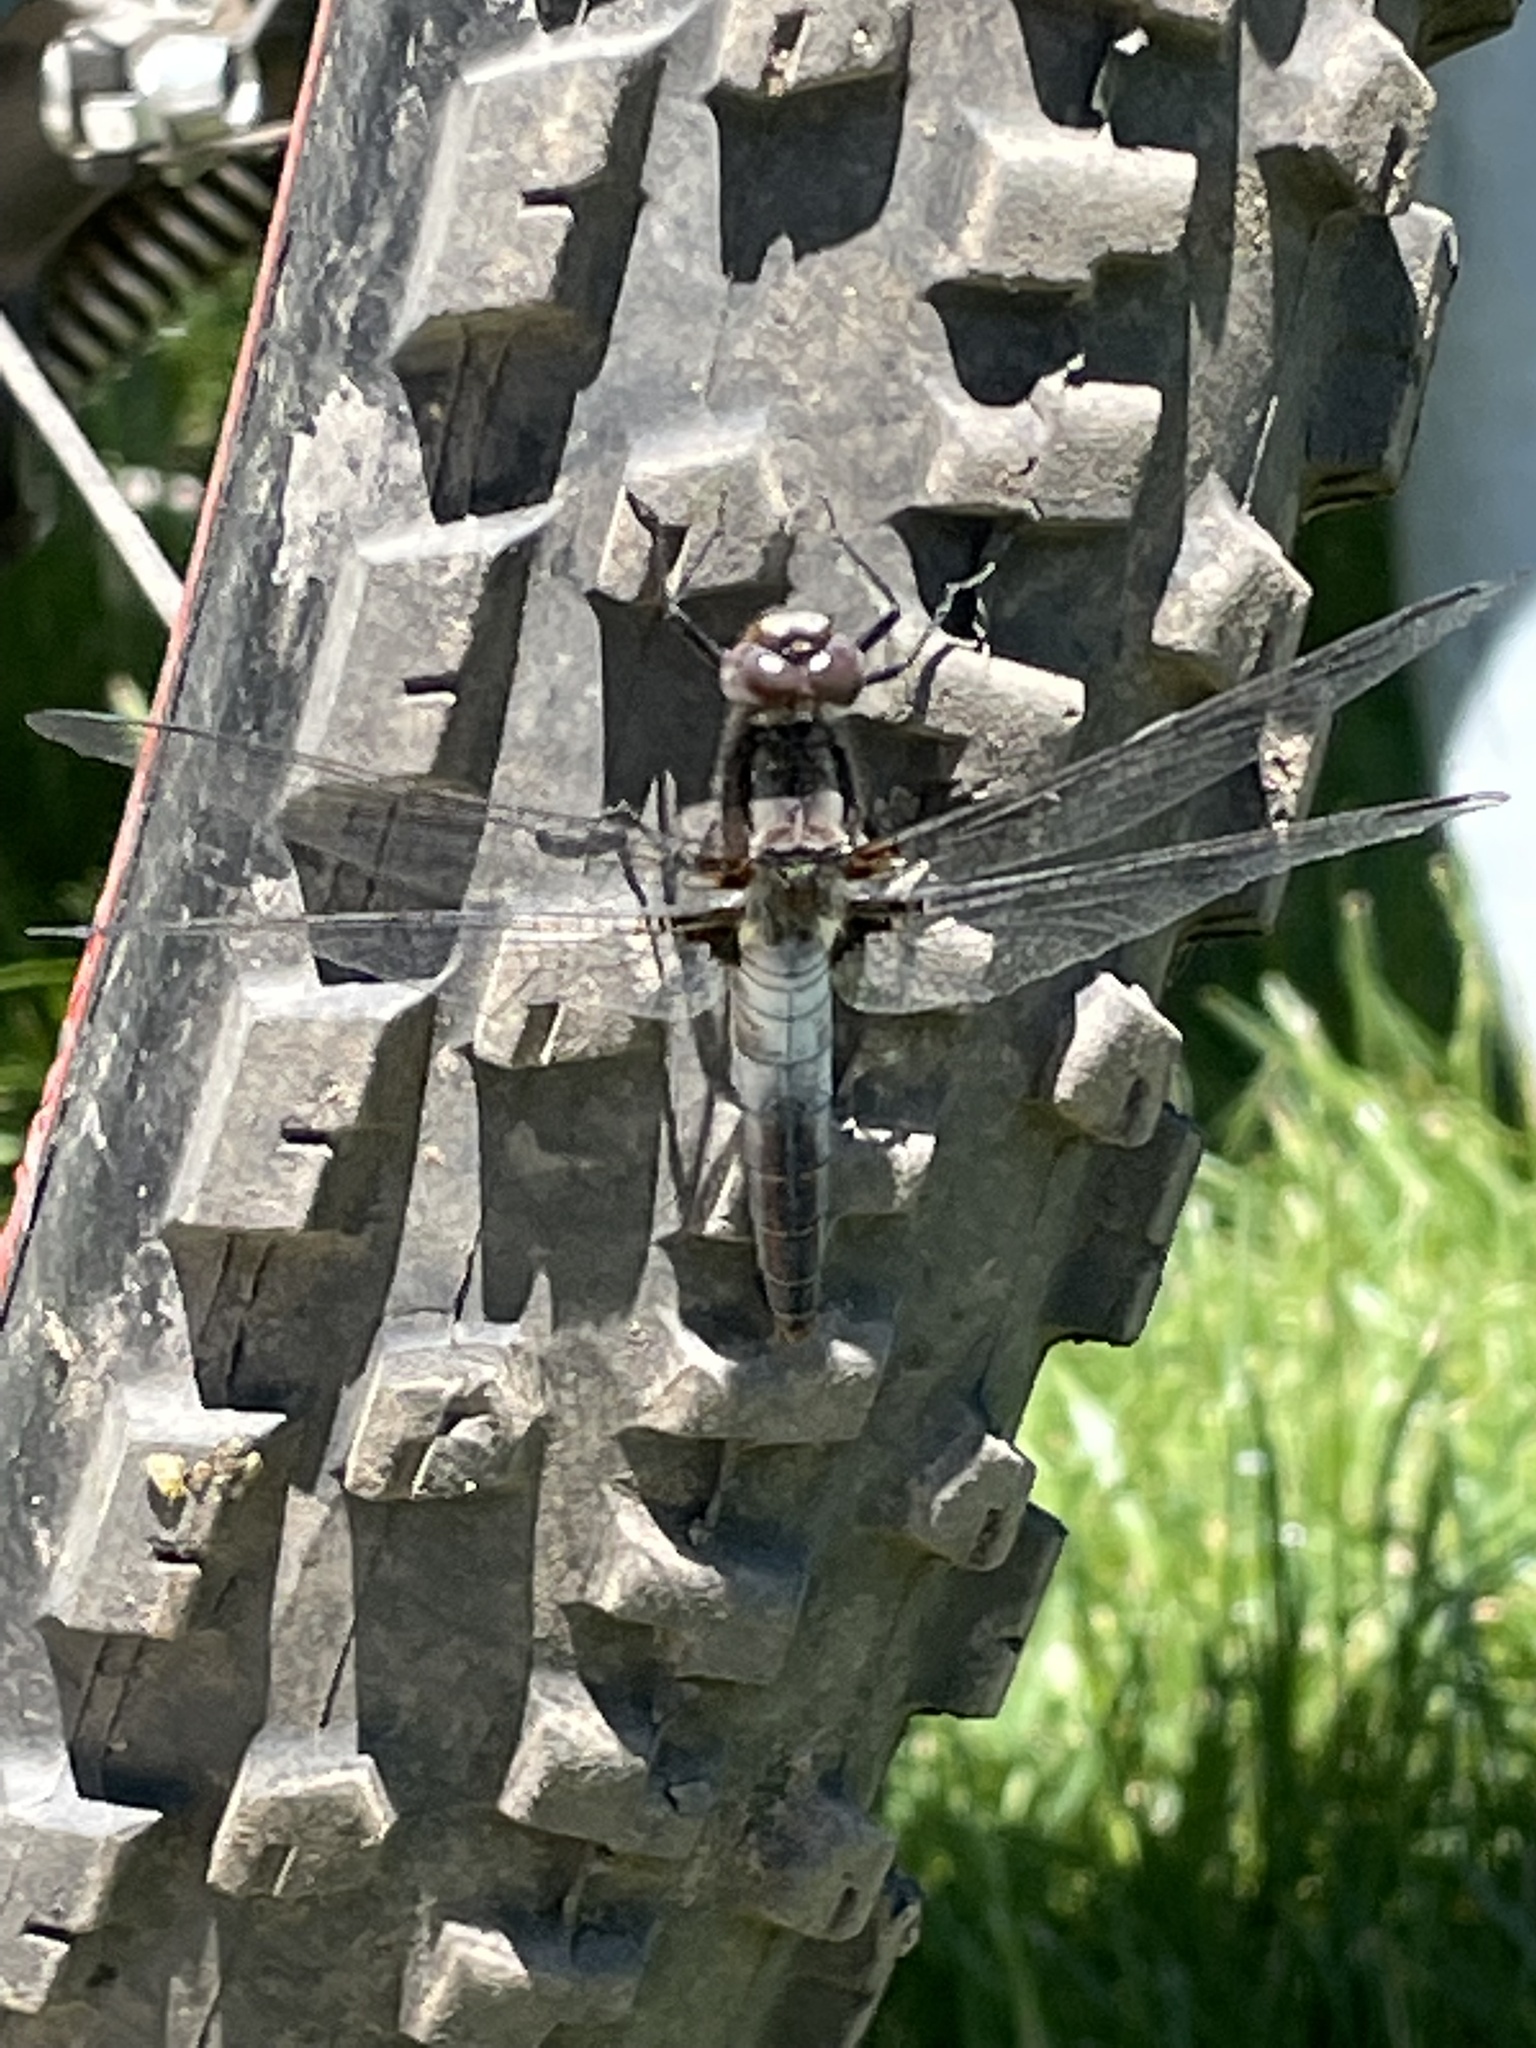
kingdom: Animalia
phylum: Arthropoda
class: Insecta
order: Odonata
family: Libellulidae
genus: Ladona
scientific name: Ladona julia
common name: Chalk-fronted corporal
